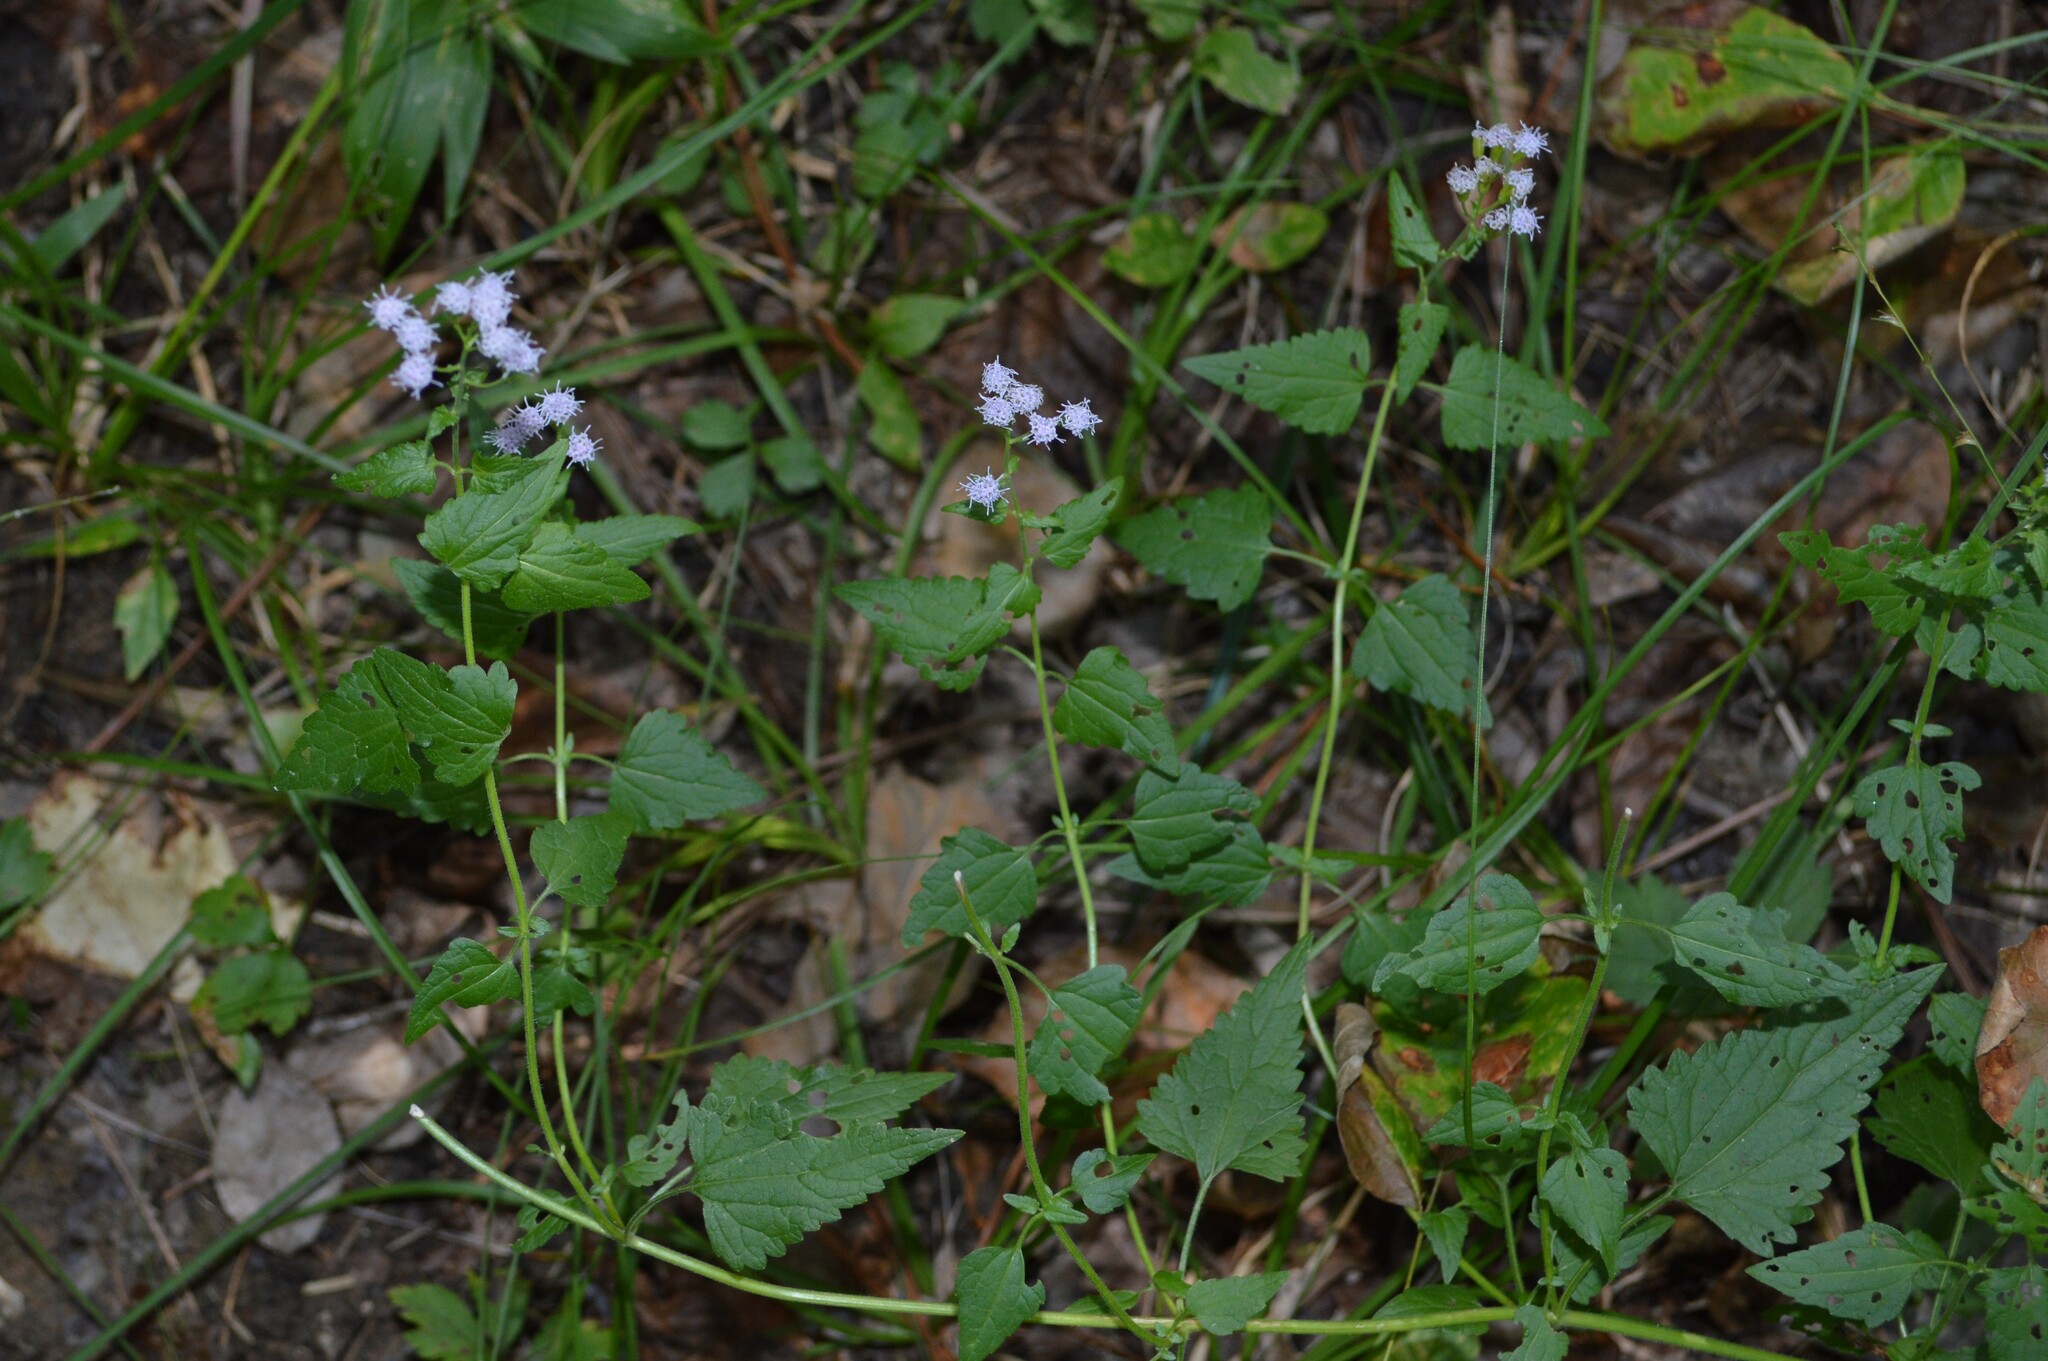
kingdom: Plantae
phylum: Tracheophyta
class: Magnoliopsida
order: Asterales
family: Asteraceae
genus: Fleischmannia
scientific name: Fleischmannia incarnata
